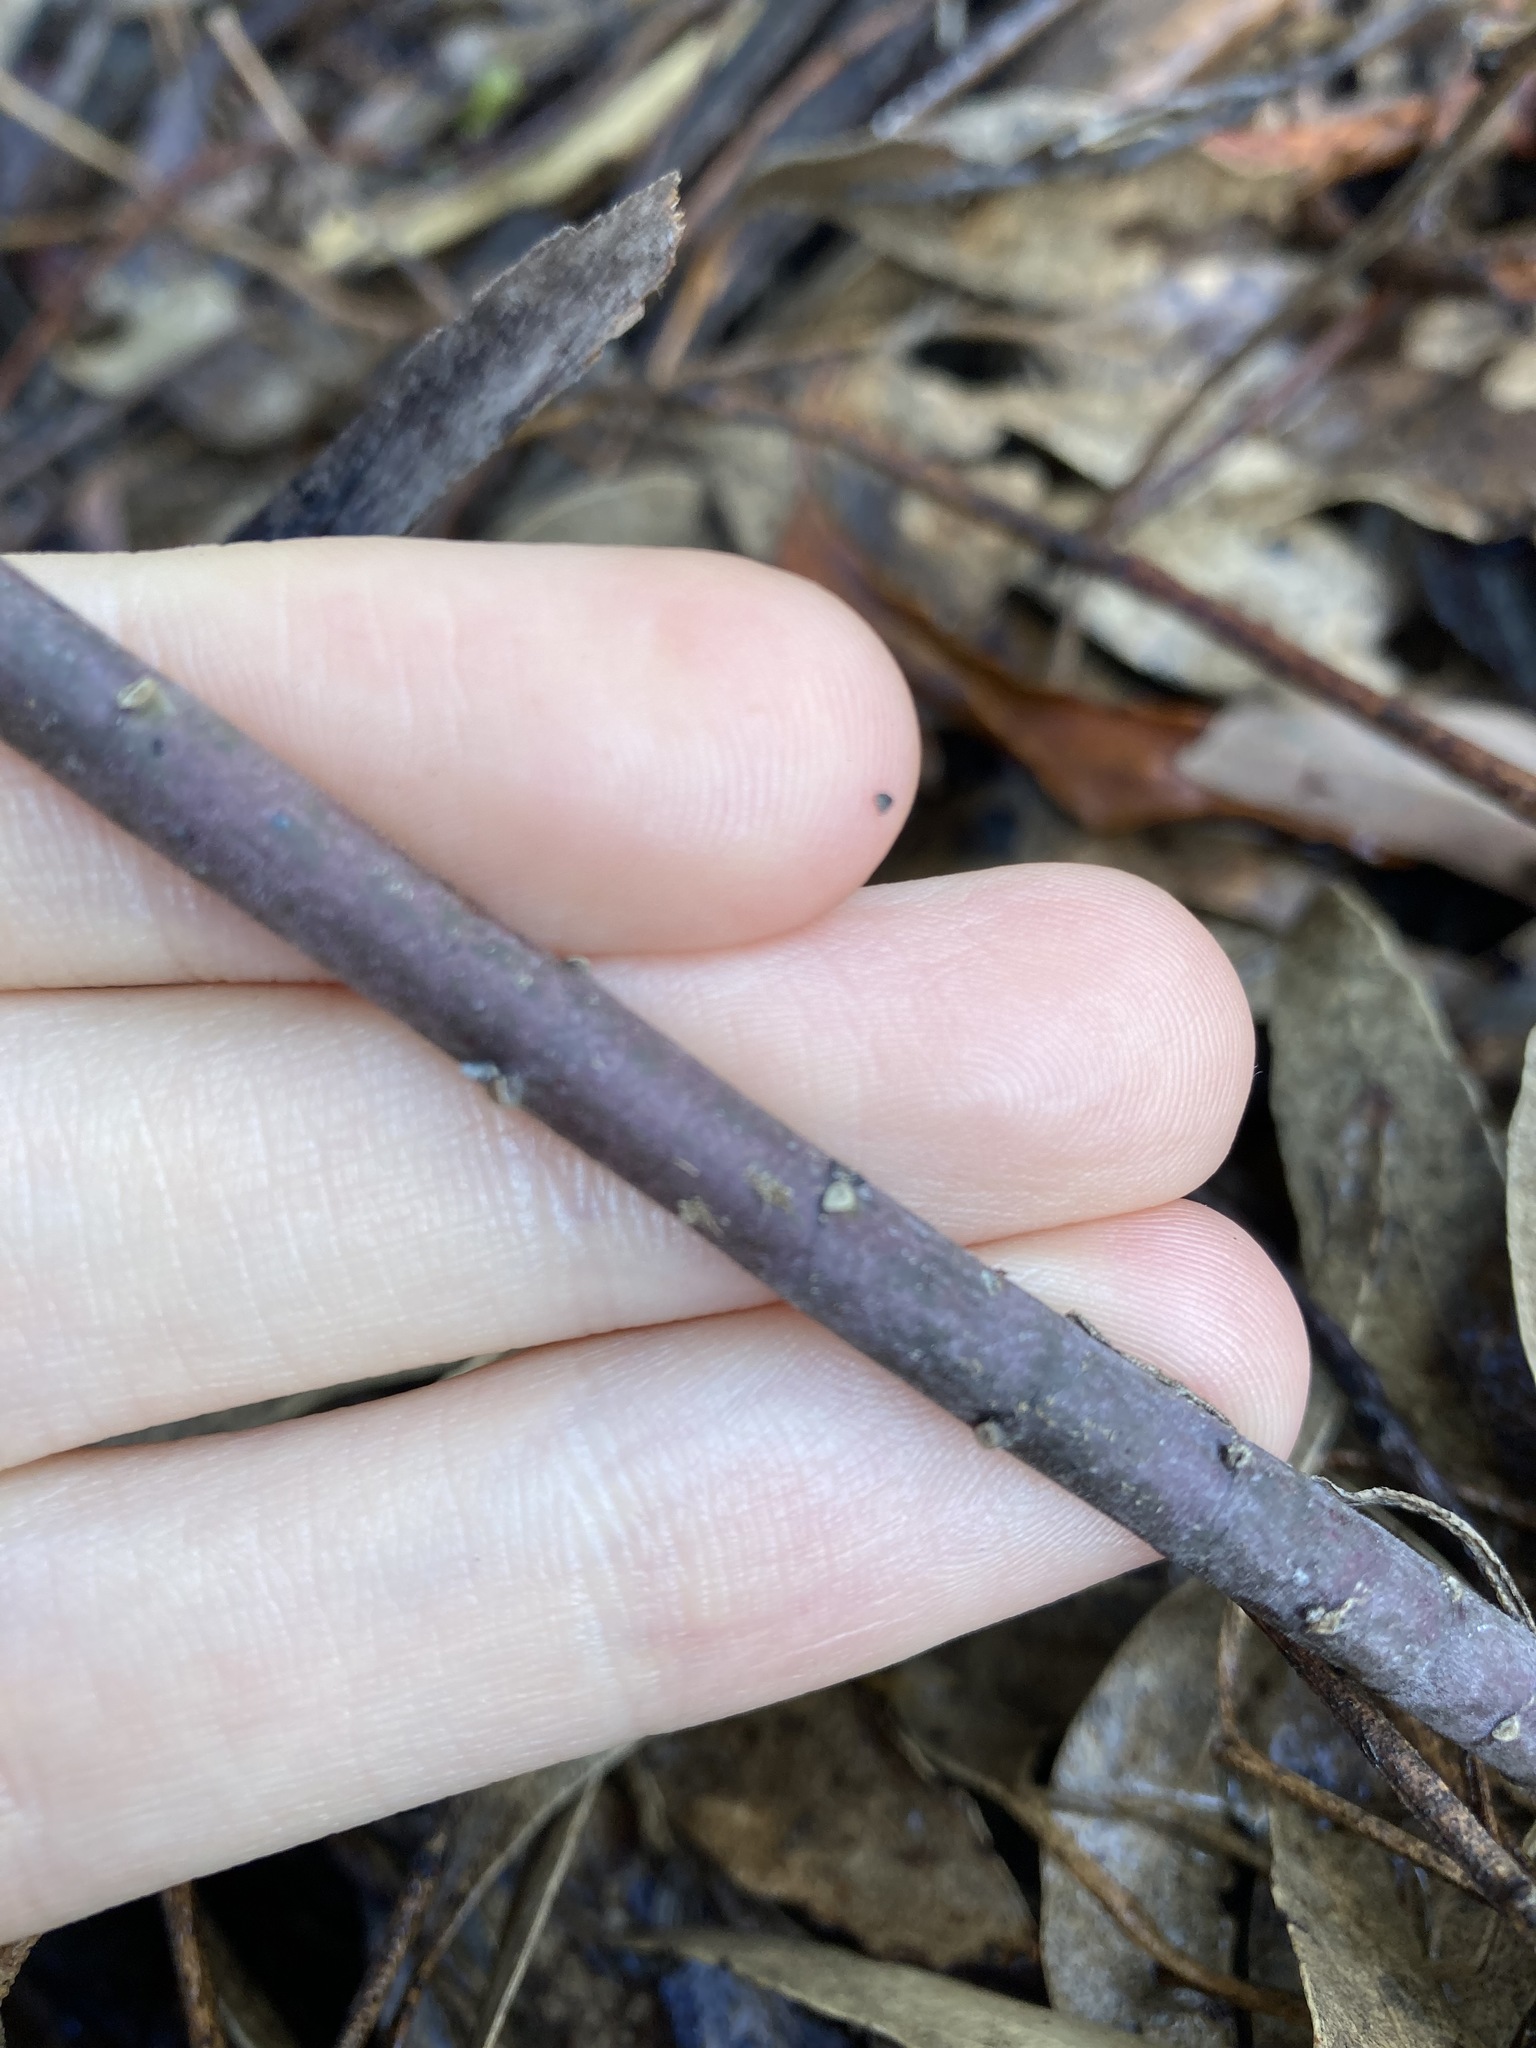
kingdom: Plantae
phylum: Tracheophyta
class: Magnoliopsida
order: Gentianales
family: Apocynaceae
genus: Asclepias
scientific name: Asclepias curassavica
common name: Bloodflower
